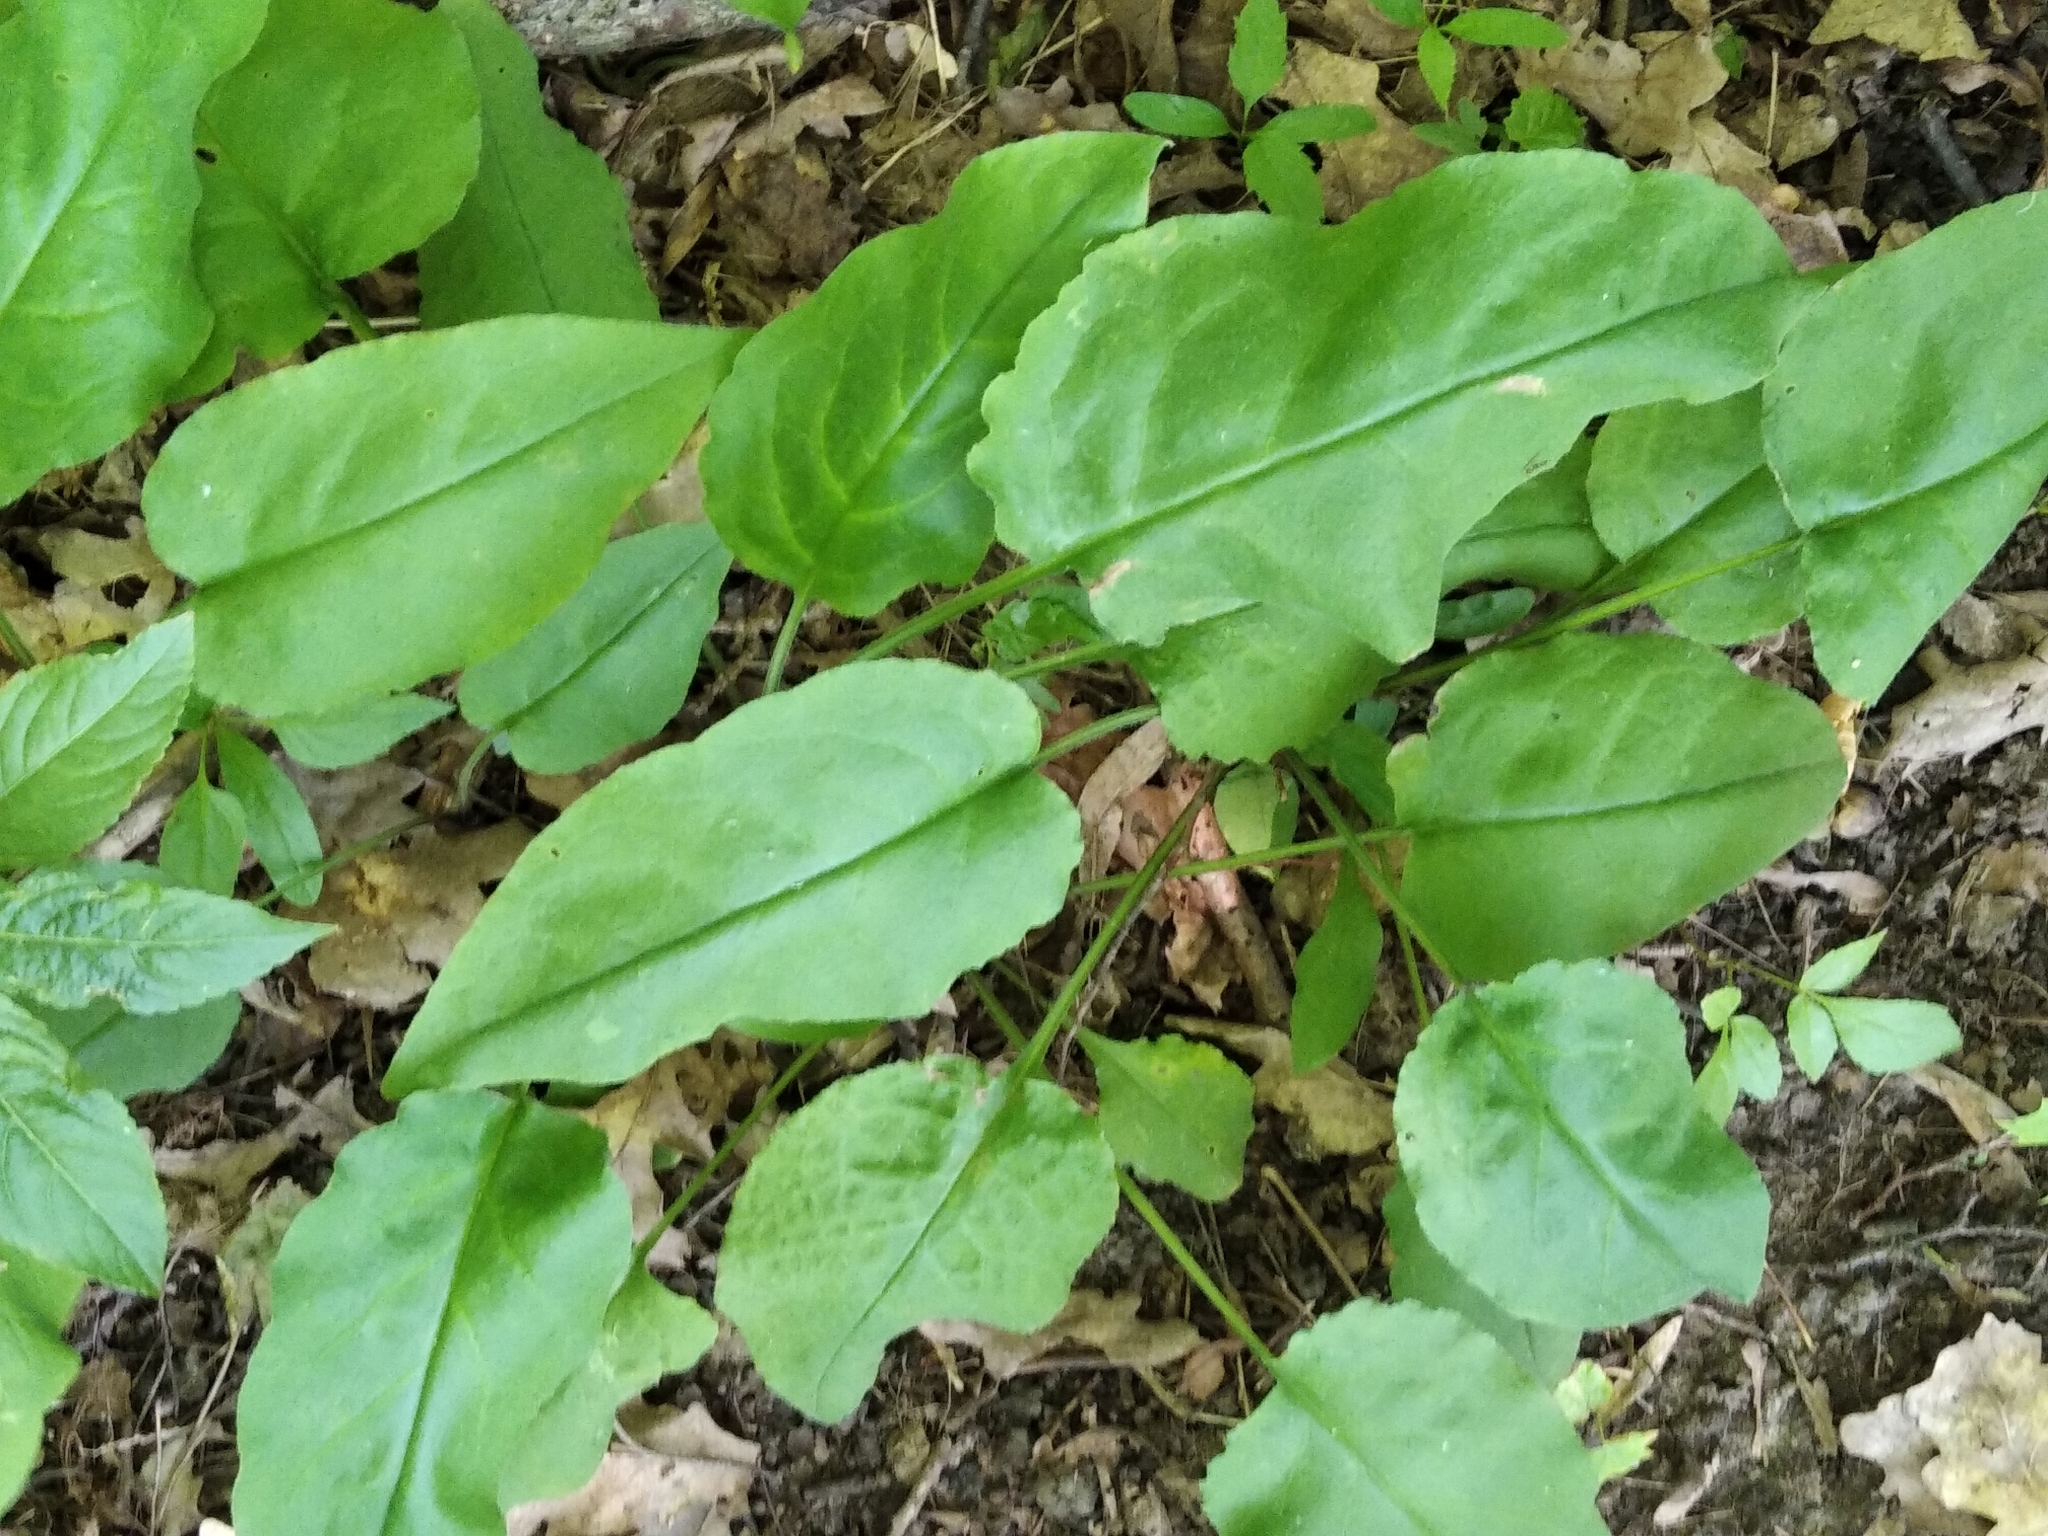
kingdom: Plantae
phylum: Tracheophyta
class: Magnoliopsida
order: Boraginales
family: Boraginaceae
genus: Pulmonaria
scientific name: Pulmonaria obscura
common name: Suffolk lungwort
